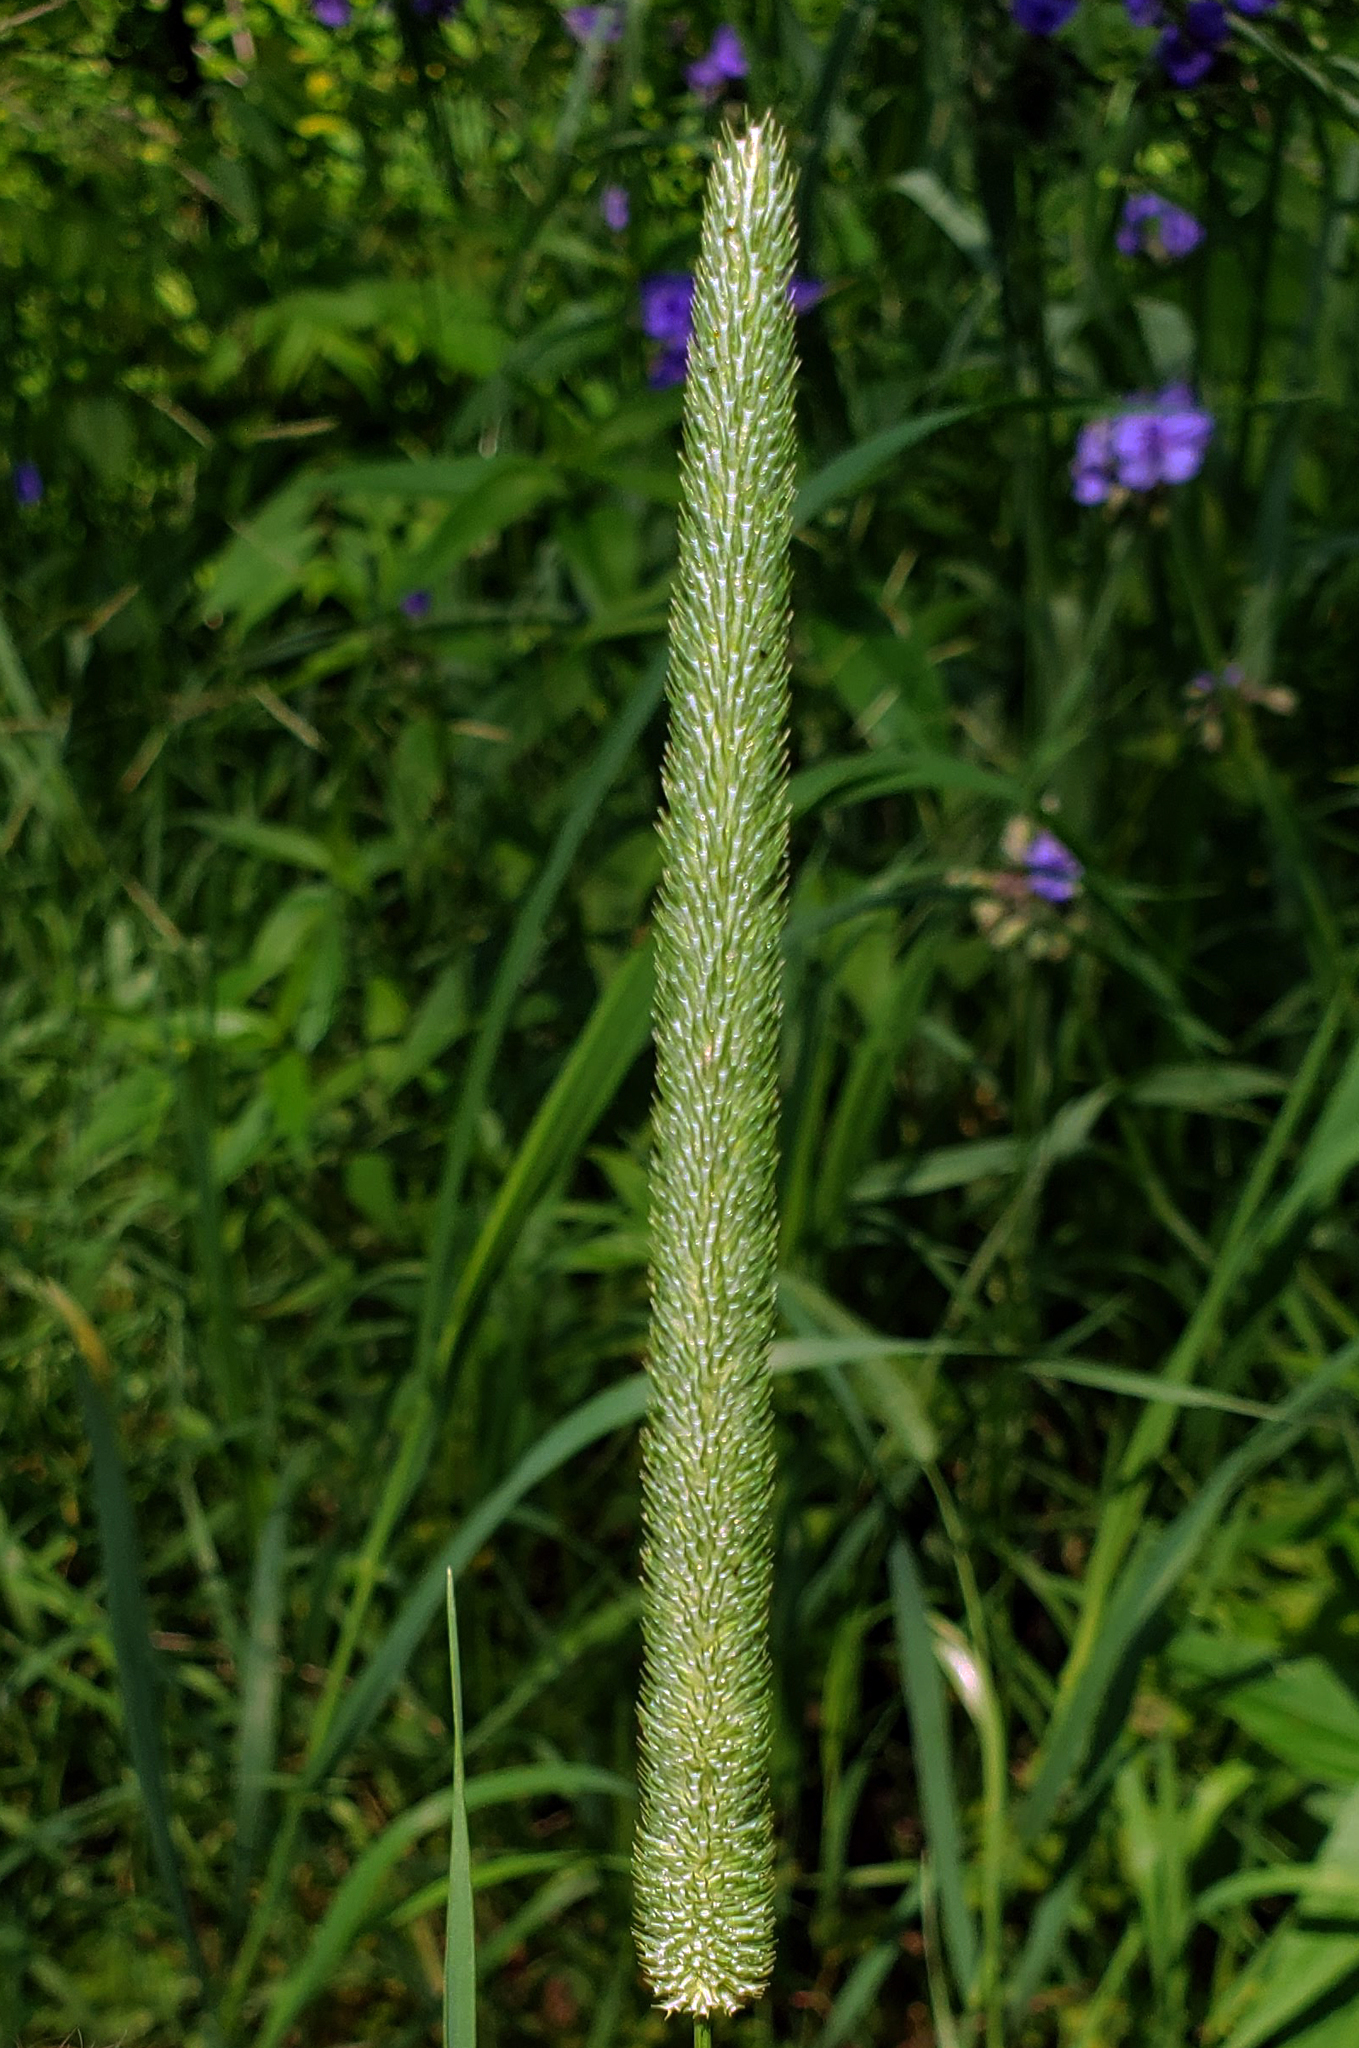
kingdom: Plantae
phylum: Tracheophyta
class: Liliopsida
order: Poales
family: Poaceae
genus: Phleum
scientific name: Phleum pratense
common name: Timothy grass
